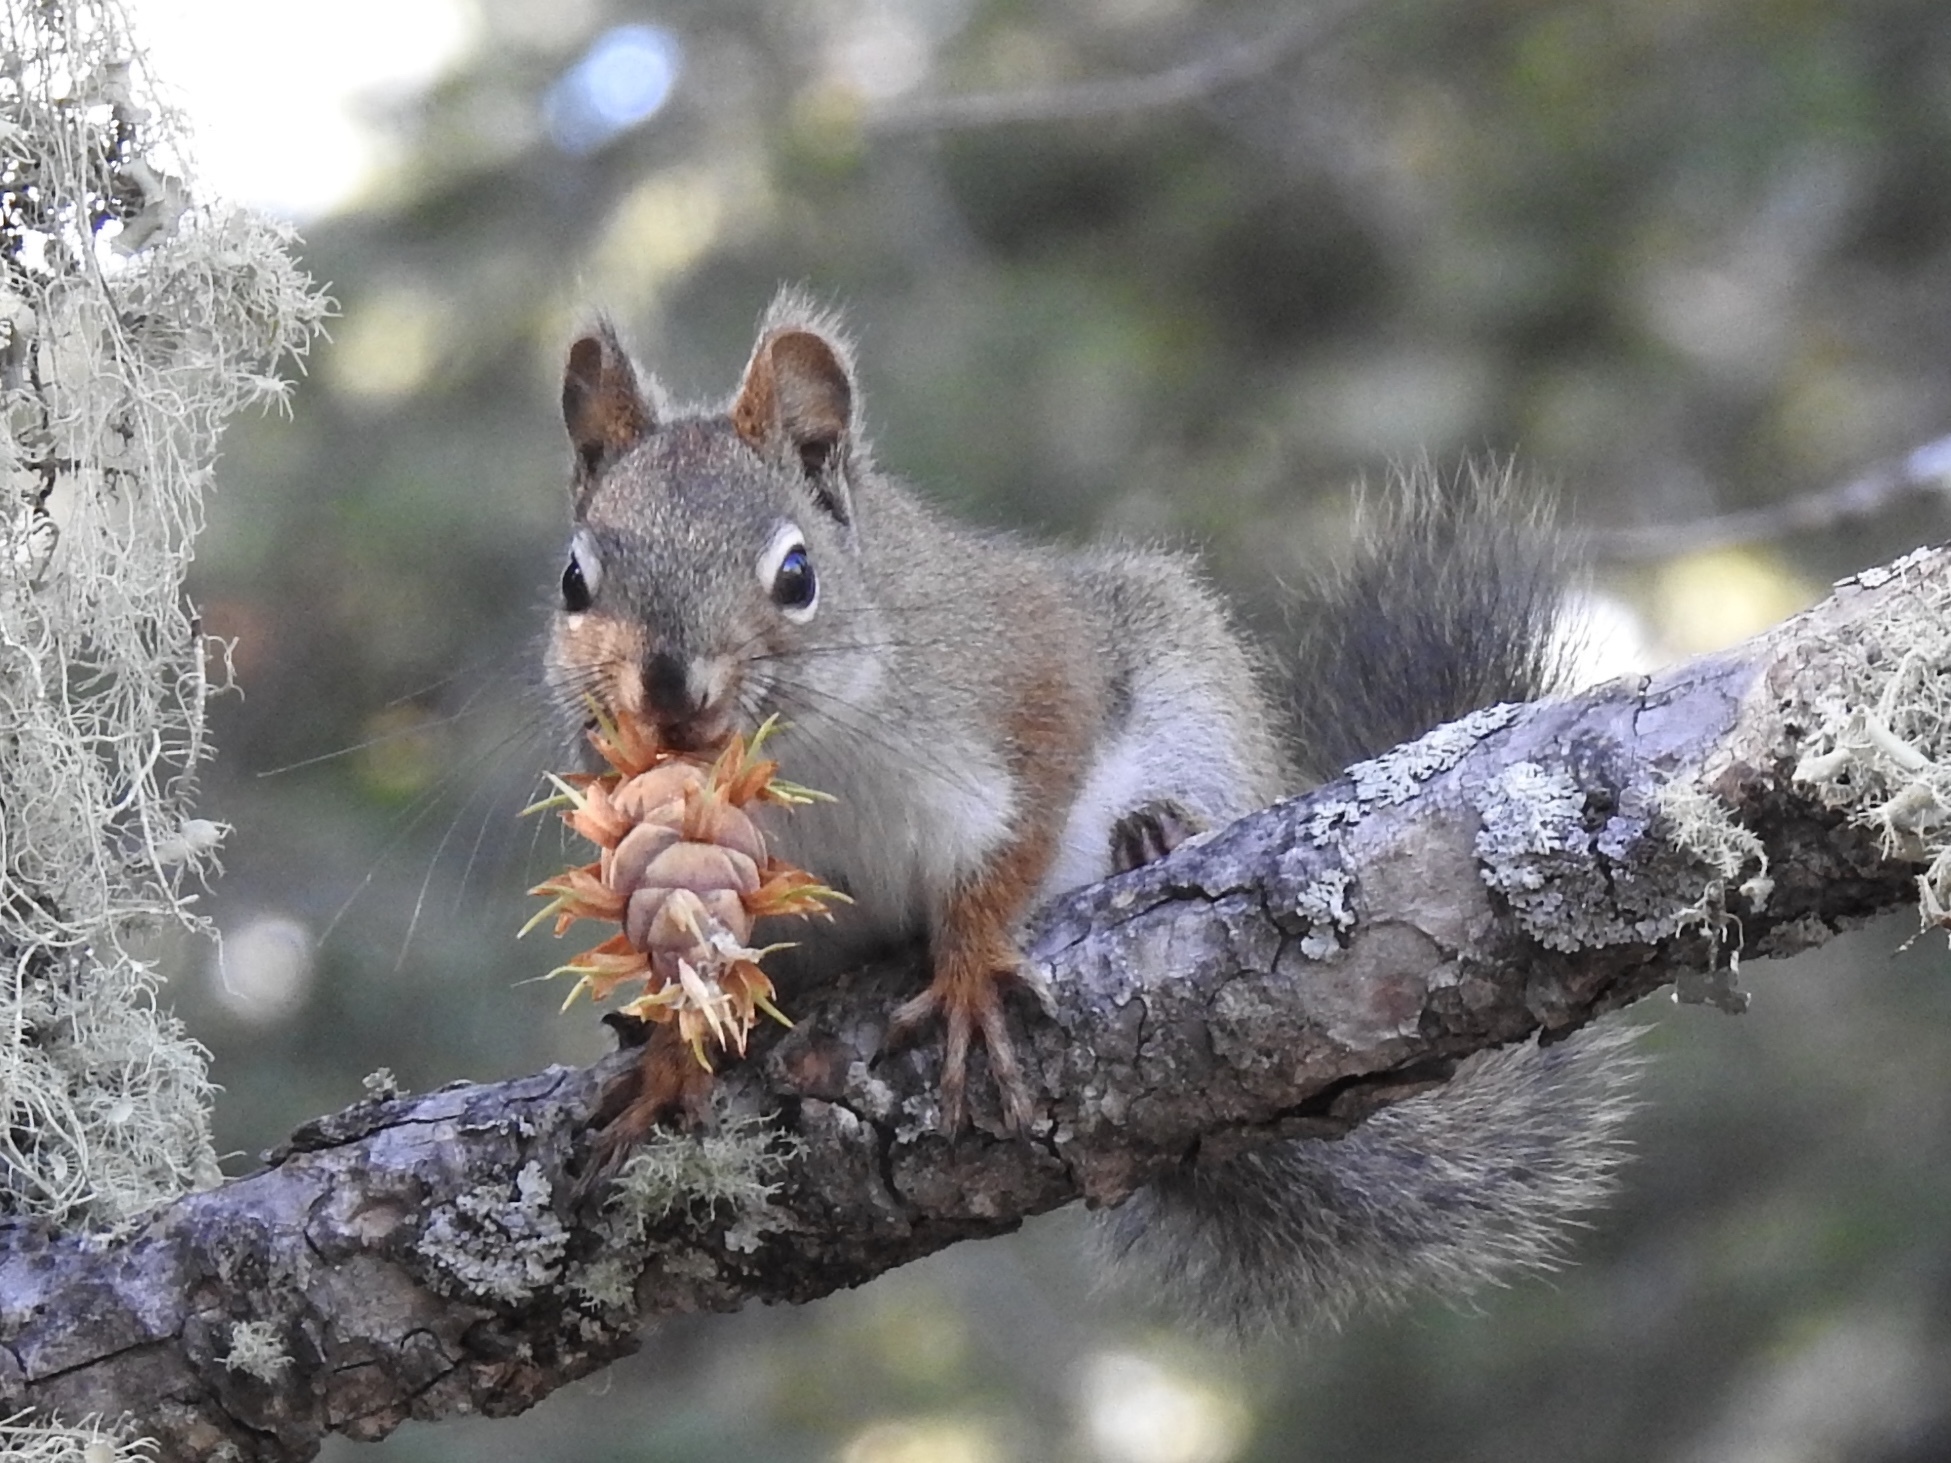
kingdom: Animalia
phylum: Chordata
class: Mammalia
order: Rodentia
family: Sciuridae
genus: Tamiasciurus
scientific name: Tamiasciurus hudsonicus
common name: Red squirrel
